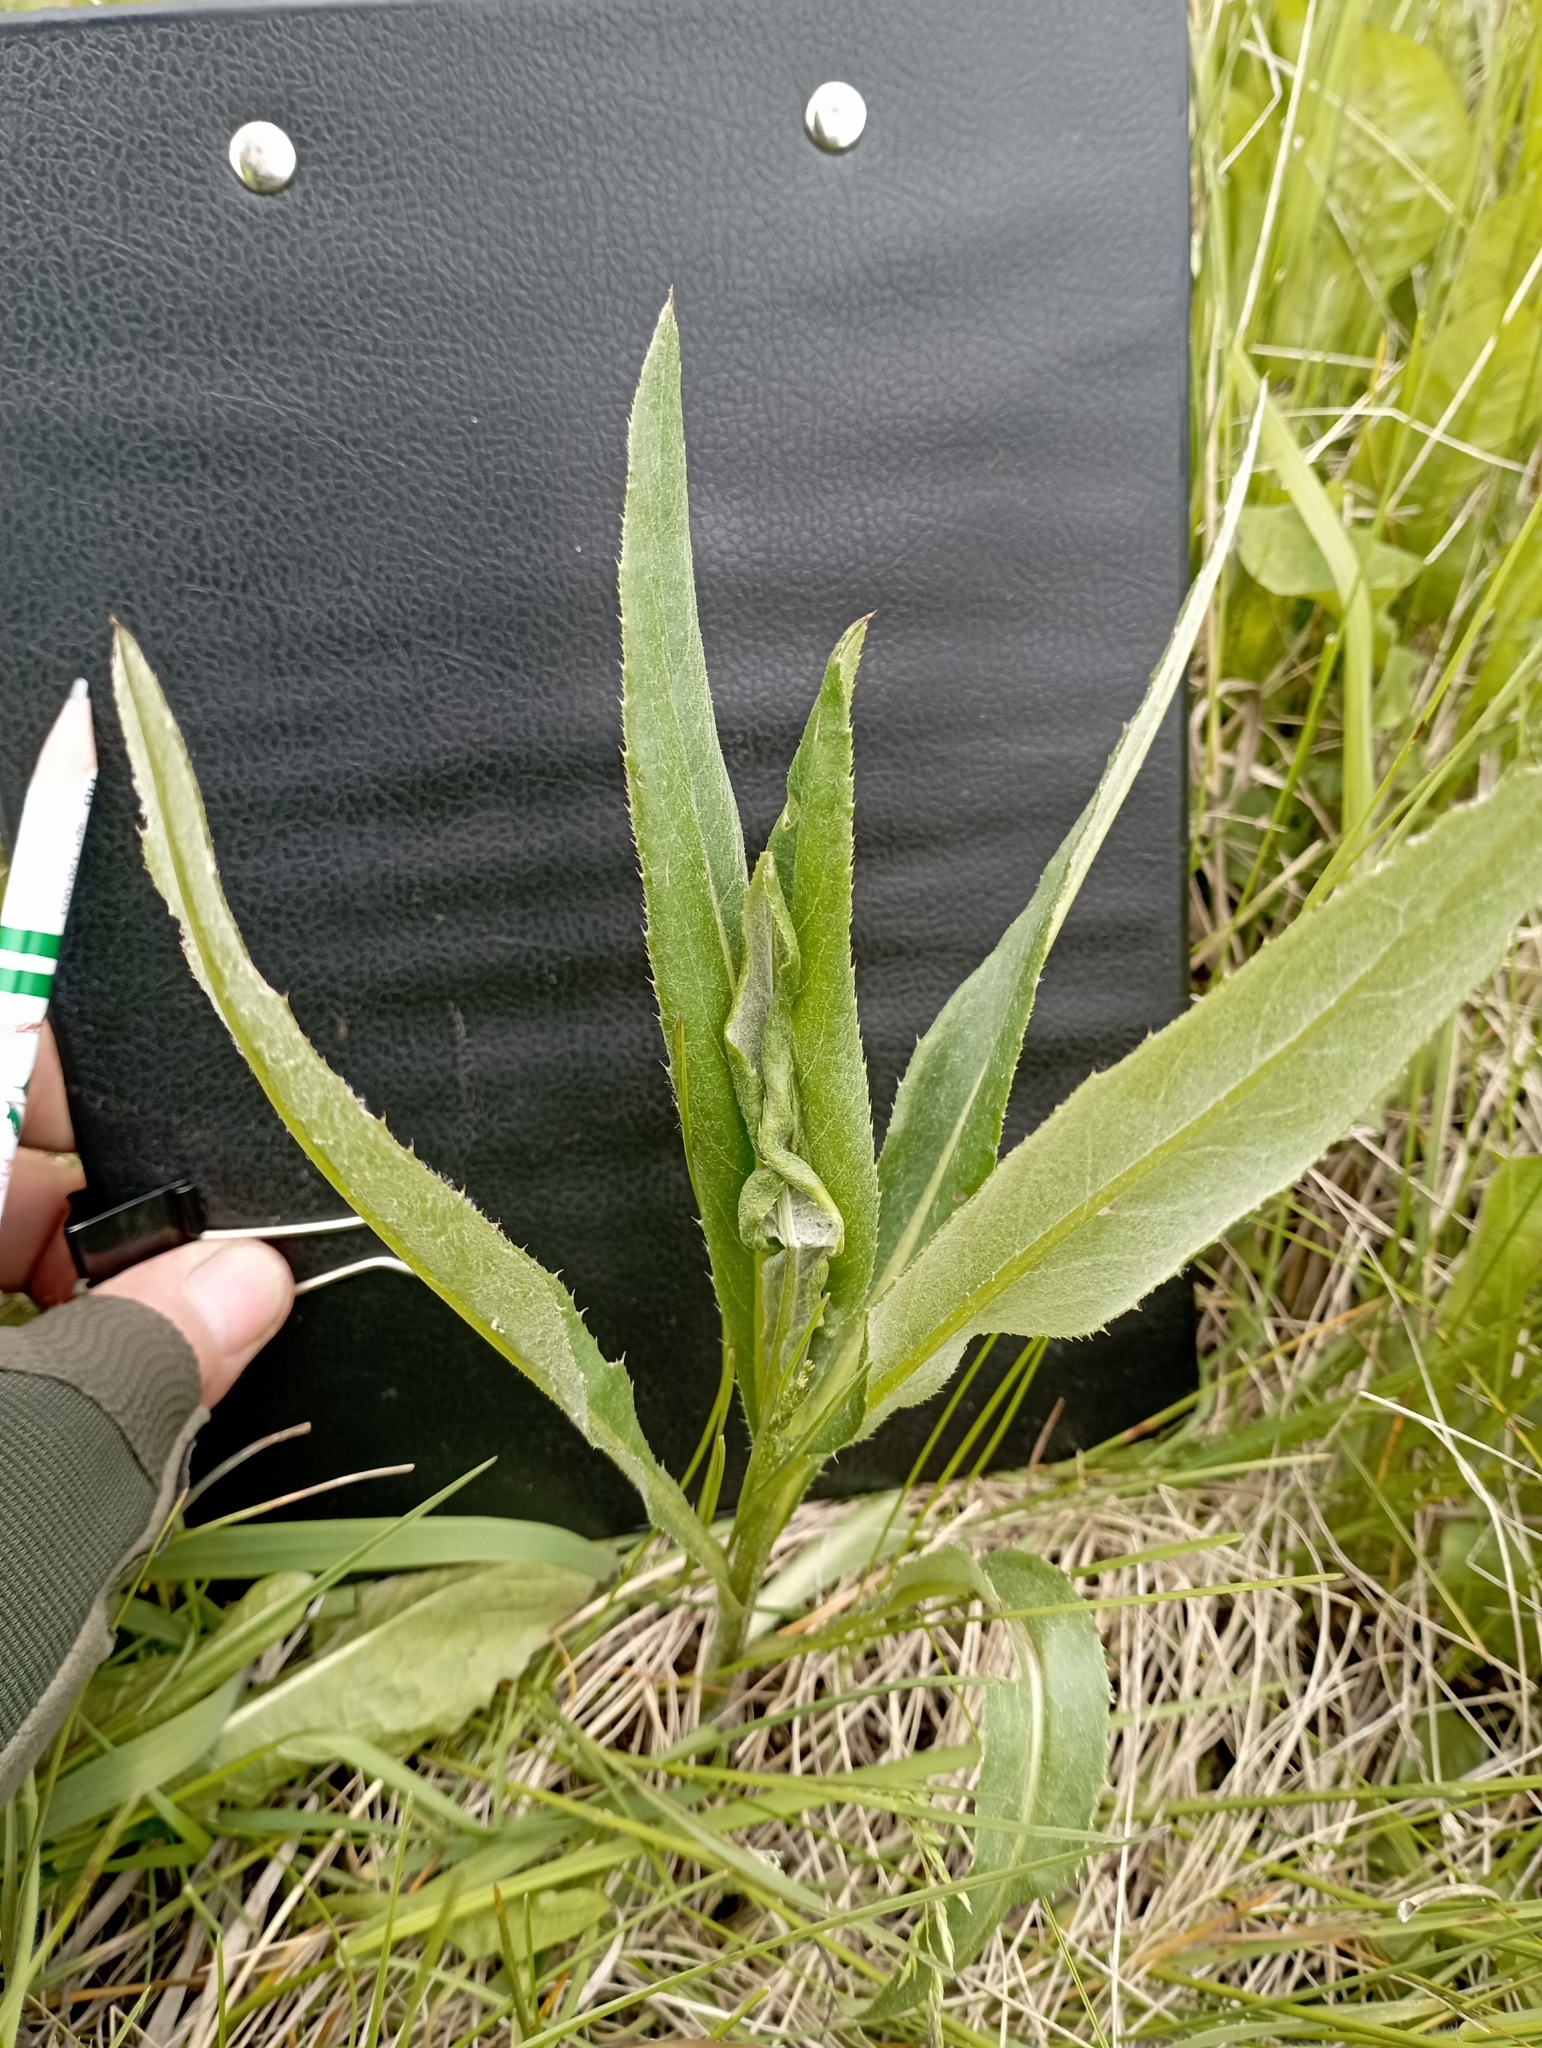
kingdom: Plantae
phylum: Tracheophyta
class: Magnoliopsida
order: Asterales
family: Asteraceae
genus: Cirsium
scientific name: Cirsium arvense
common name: Creeping thistle
